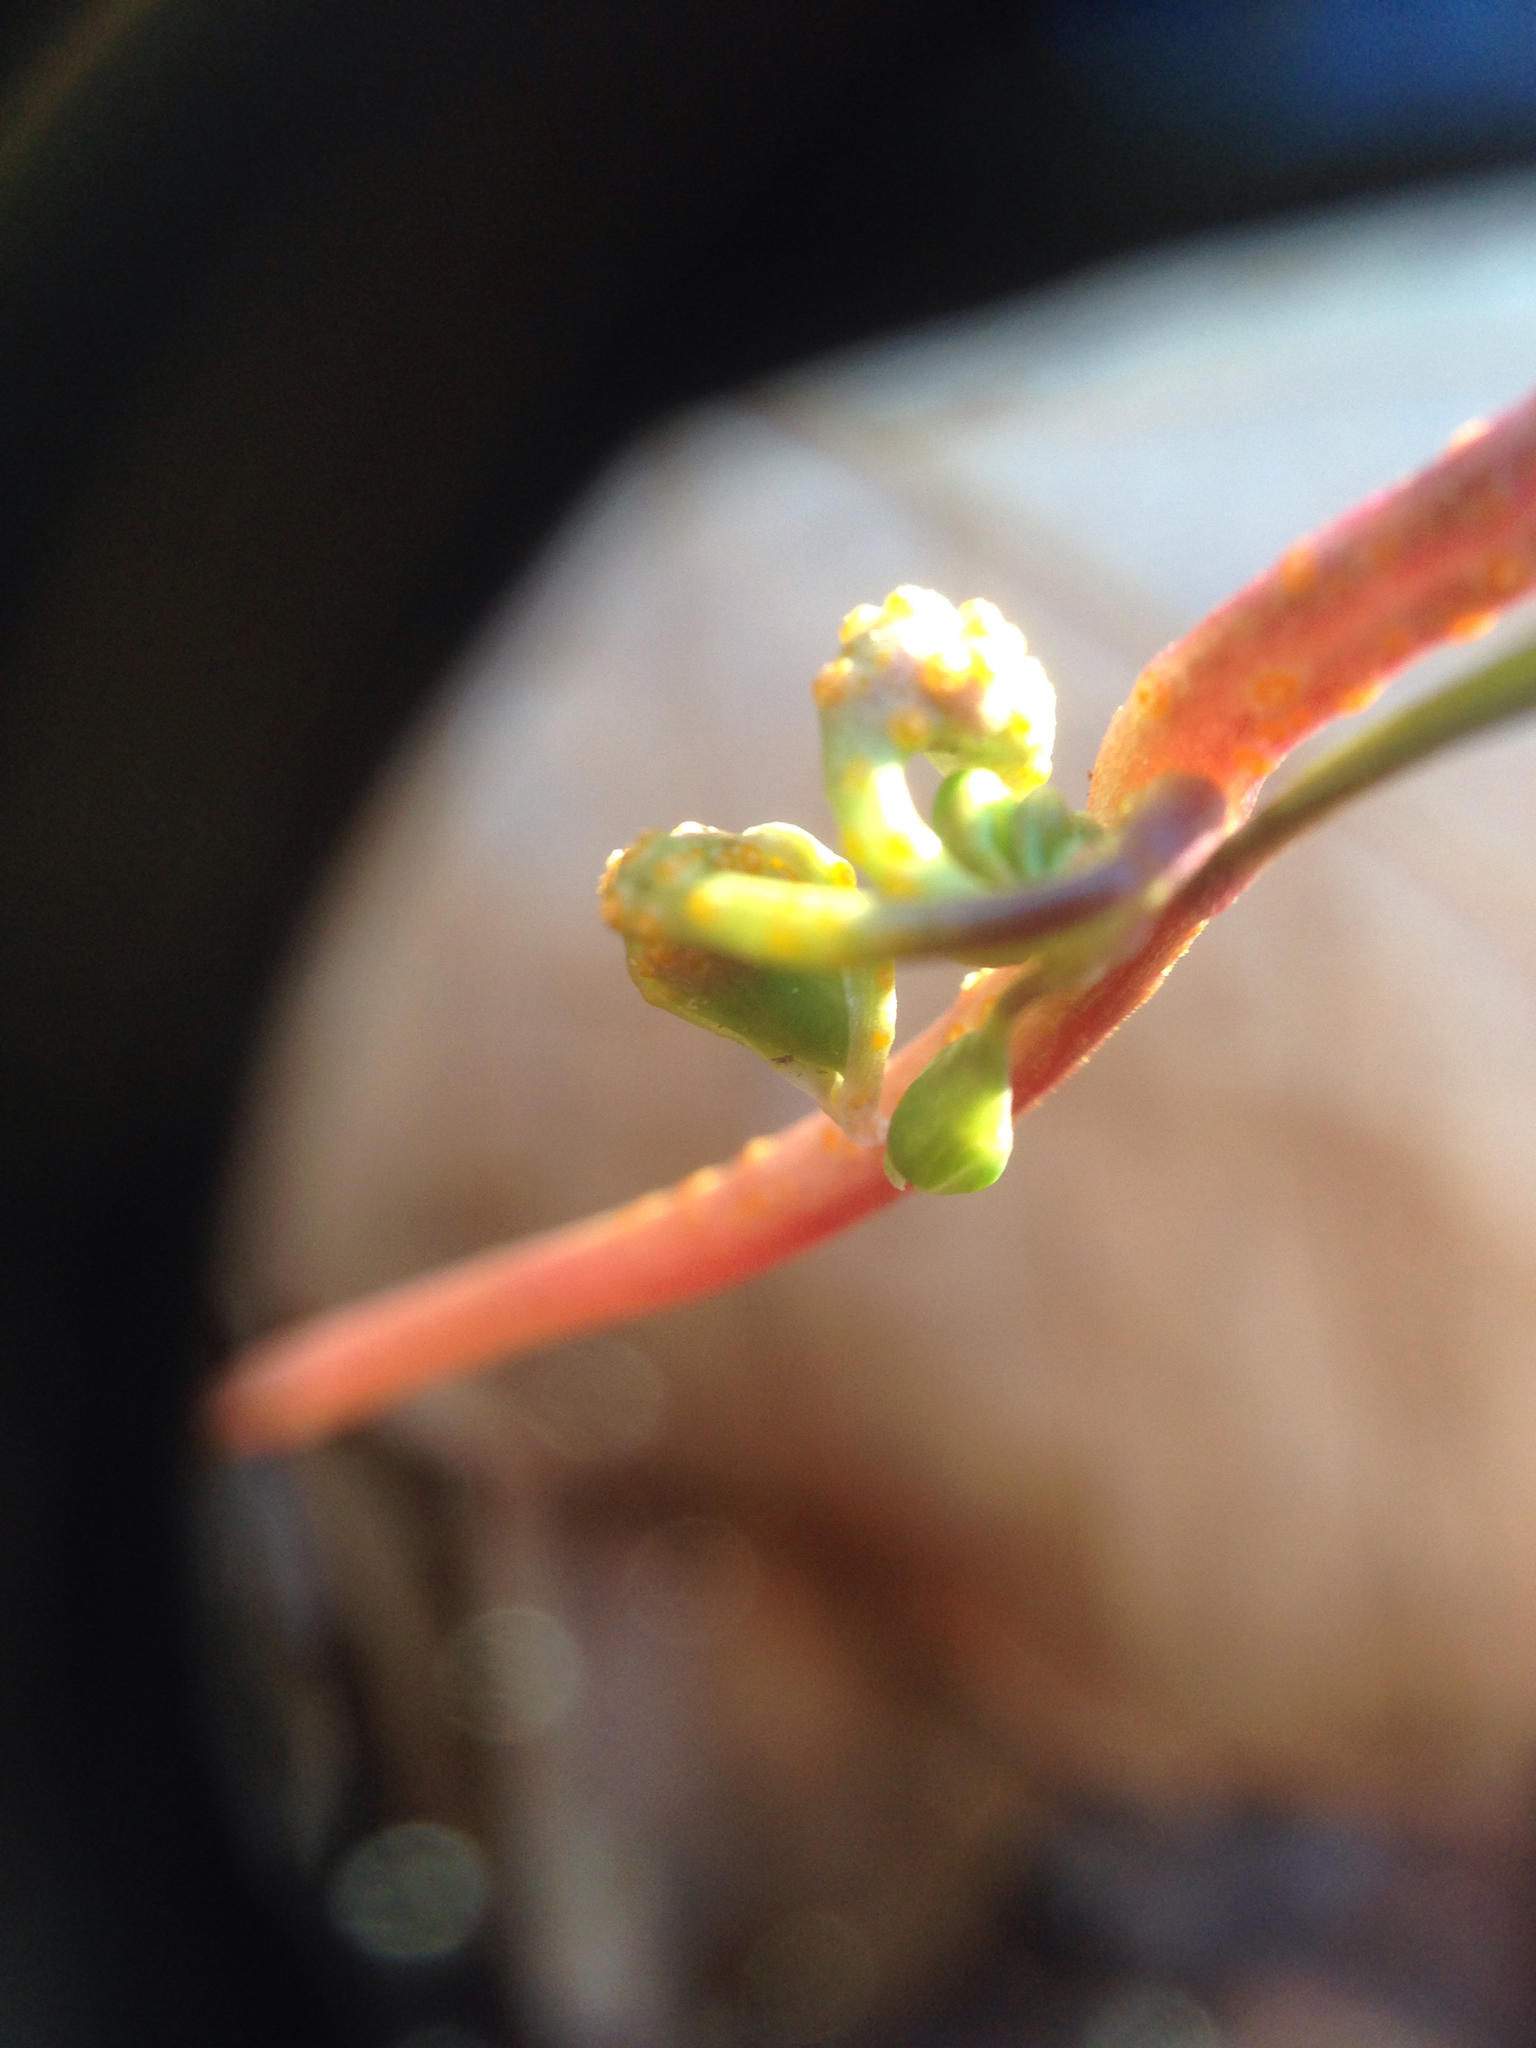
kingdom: Fungi
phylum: Basidiomycota
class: Pucciniomycetes
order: Pucciniales
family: Pucciniaceae
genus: Puccinia
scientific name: Puccinia mariae-wilsoniae
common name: Spring beauty rust
